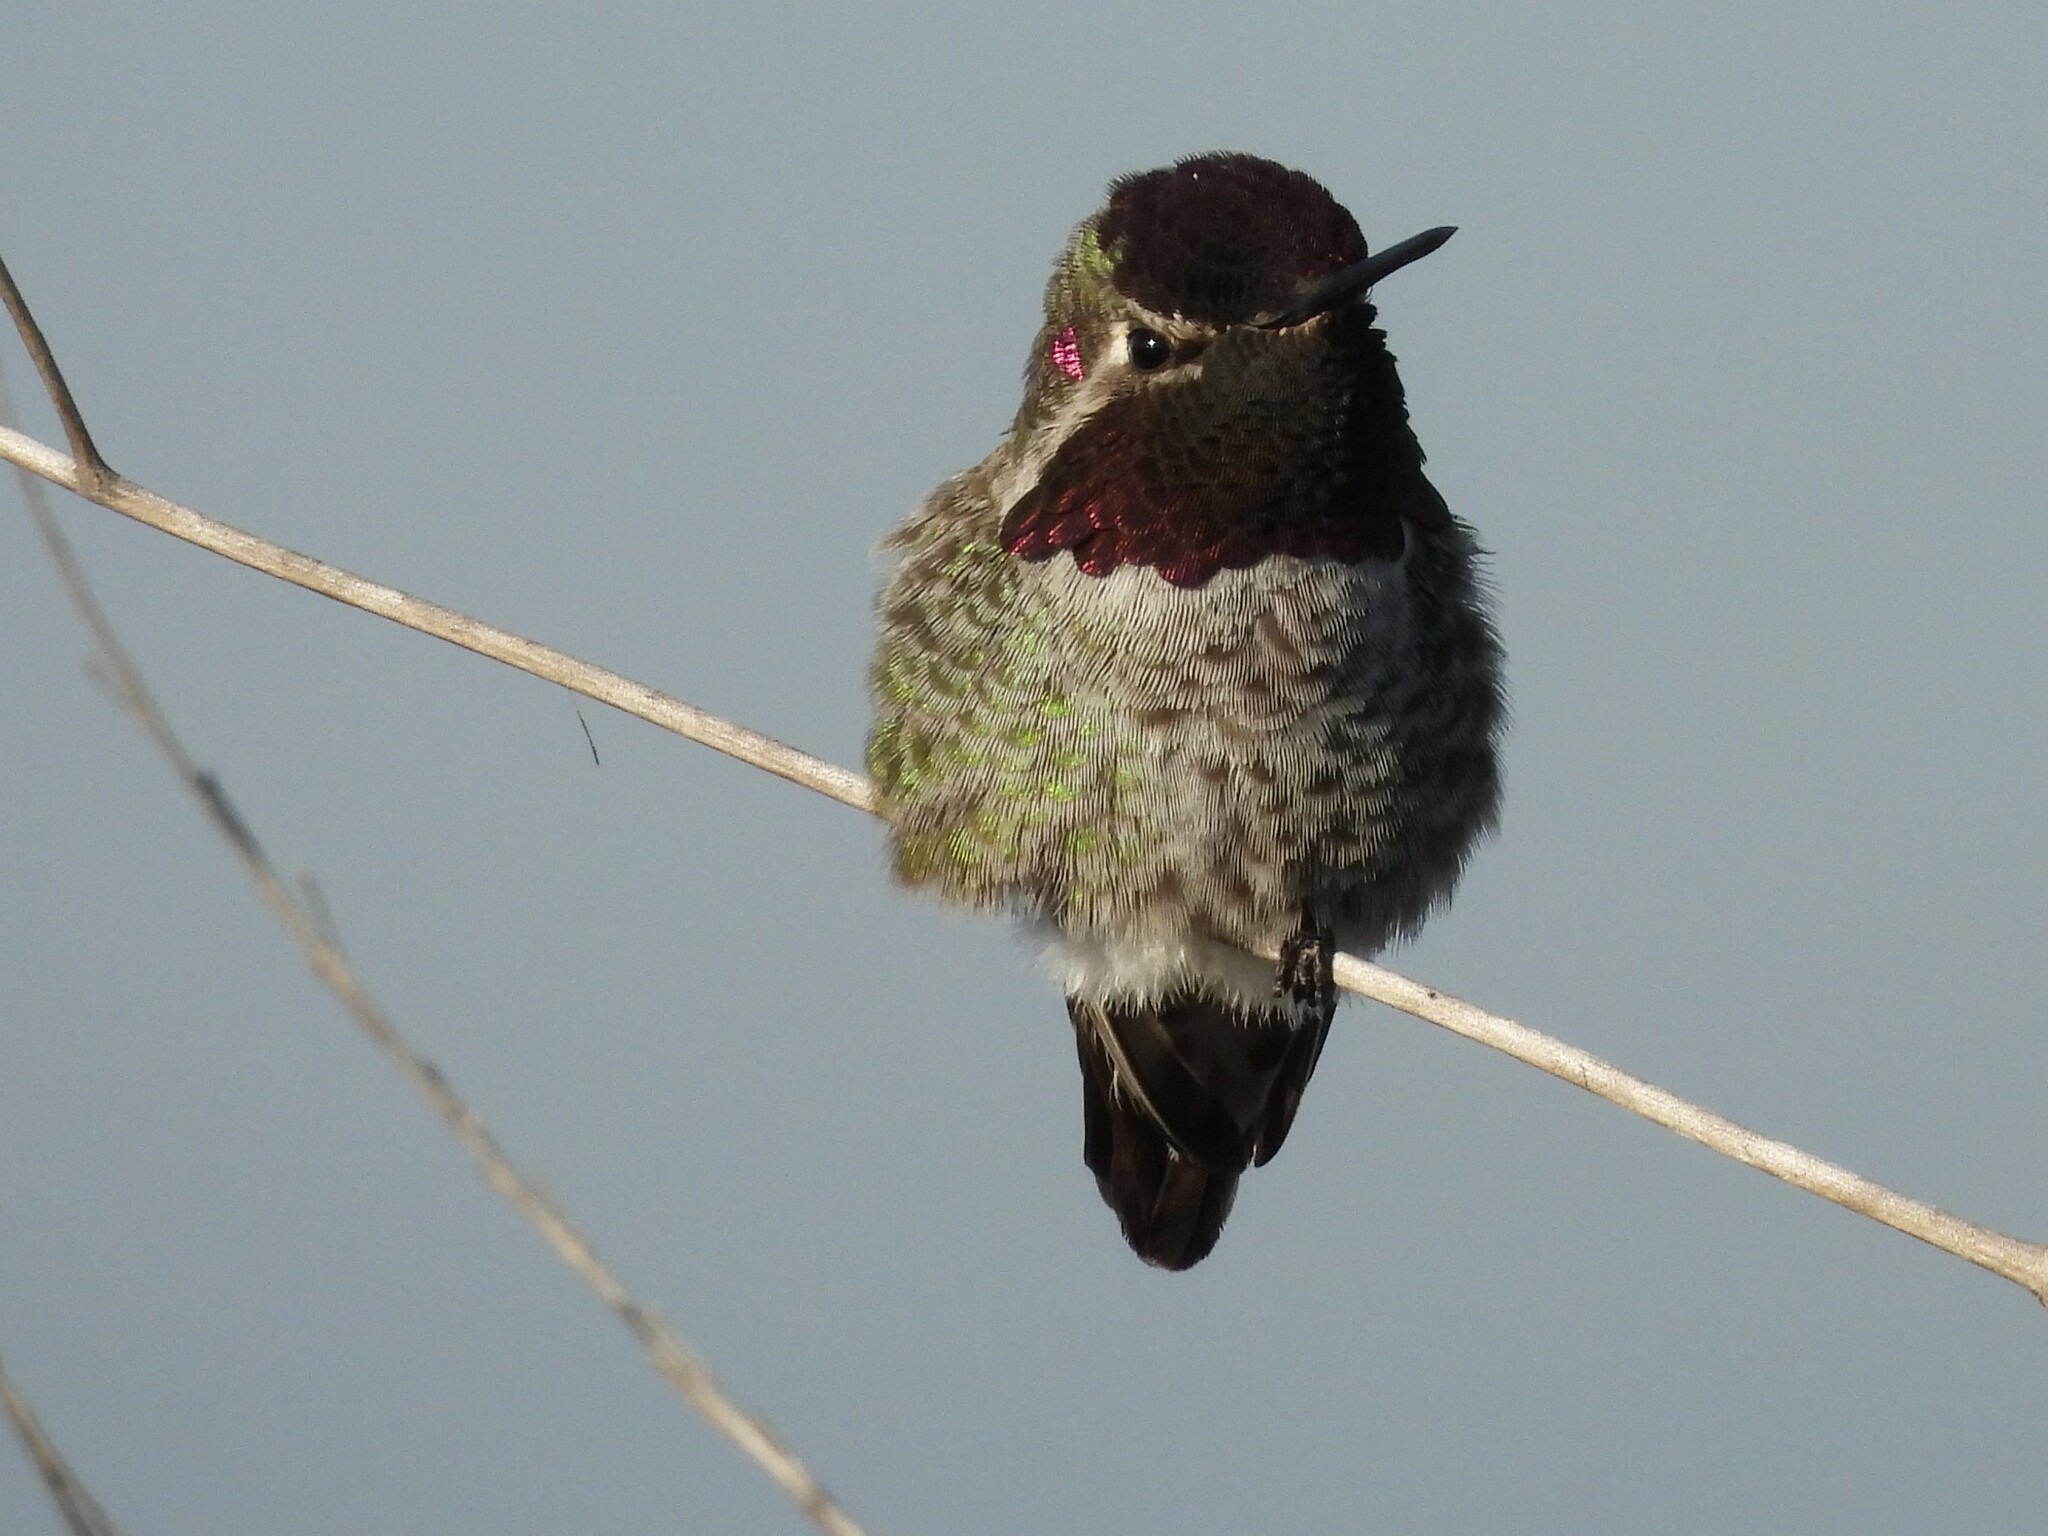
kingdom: Animalia
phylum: Chordata
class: Aves
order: Apodiformes
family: Trochilidae
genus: Calypte
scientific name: Calypte anna
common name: Anna's hummingbird
